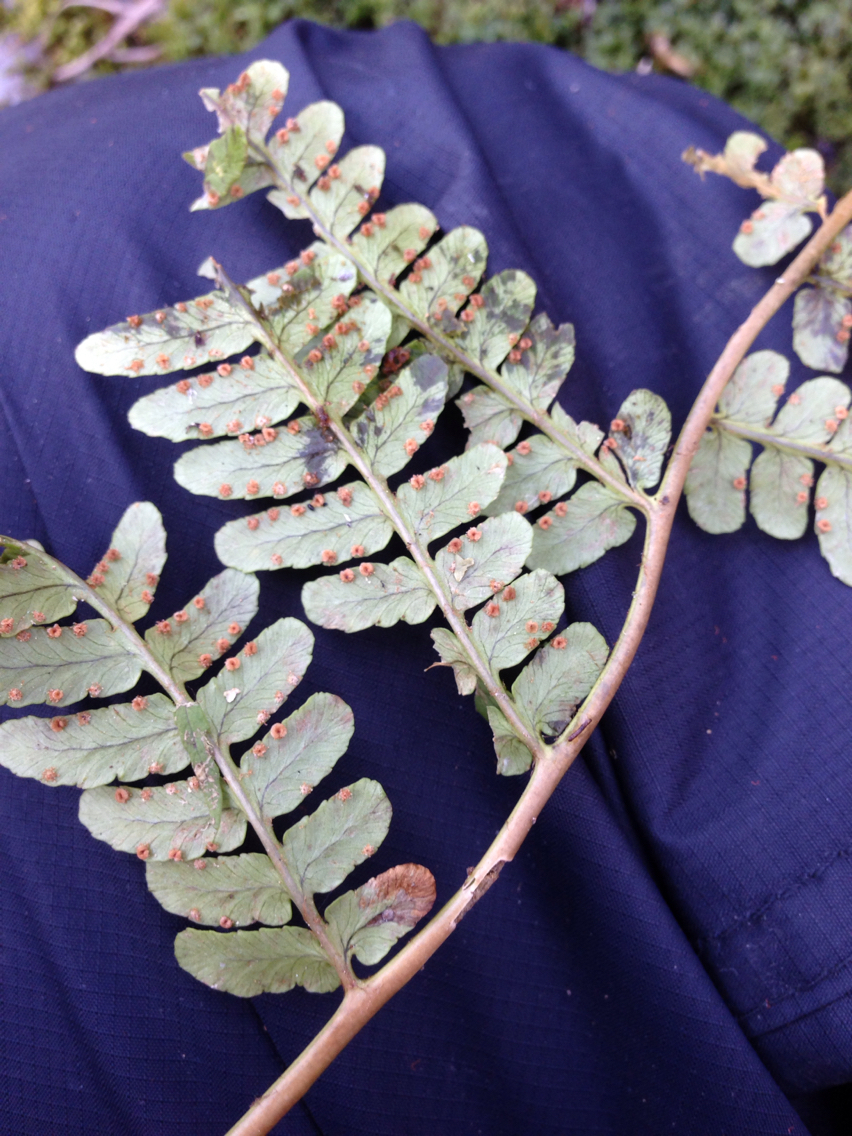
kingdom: Plantae
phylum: Tracheophyta
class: Polypodiopsida
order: Polypodiales
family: Dryopteridaceae
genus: Dryopteris
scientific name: Dryopteris marginalis
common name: Marginal wood fern
